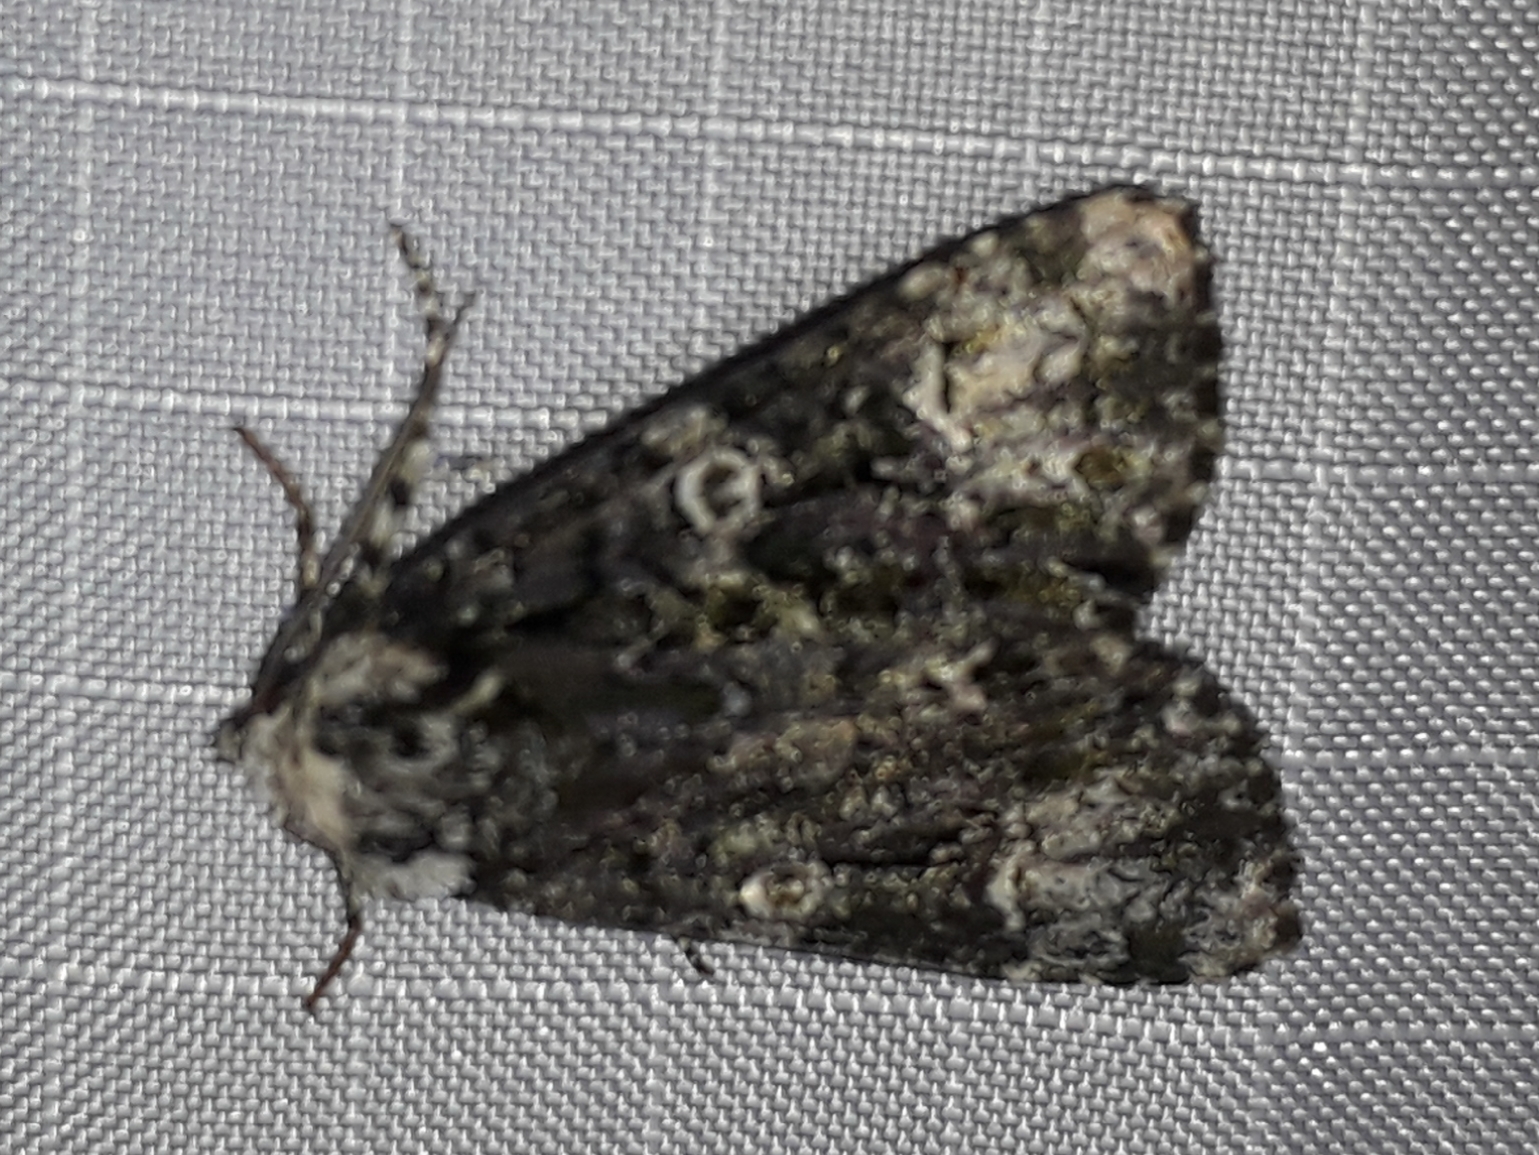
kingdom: Animalia
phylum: Arthropoda
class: Insecta
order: Lepidoptera
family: Noctuidae
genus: Craniophora
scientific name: Craniophora ligustri
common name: Coronet
